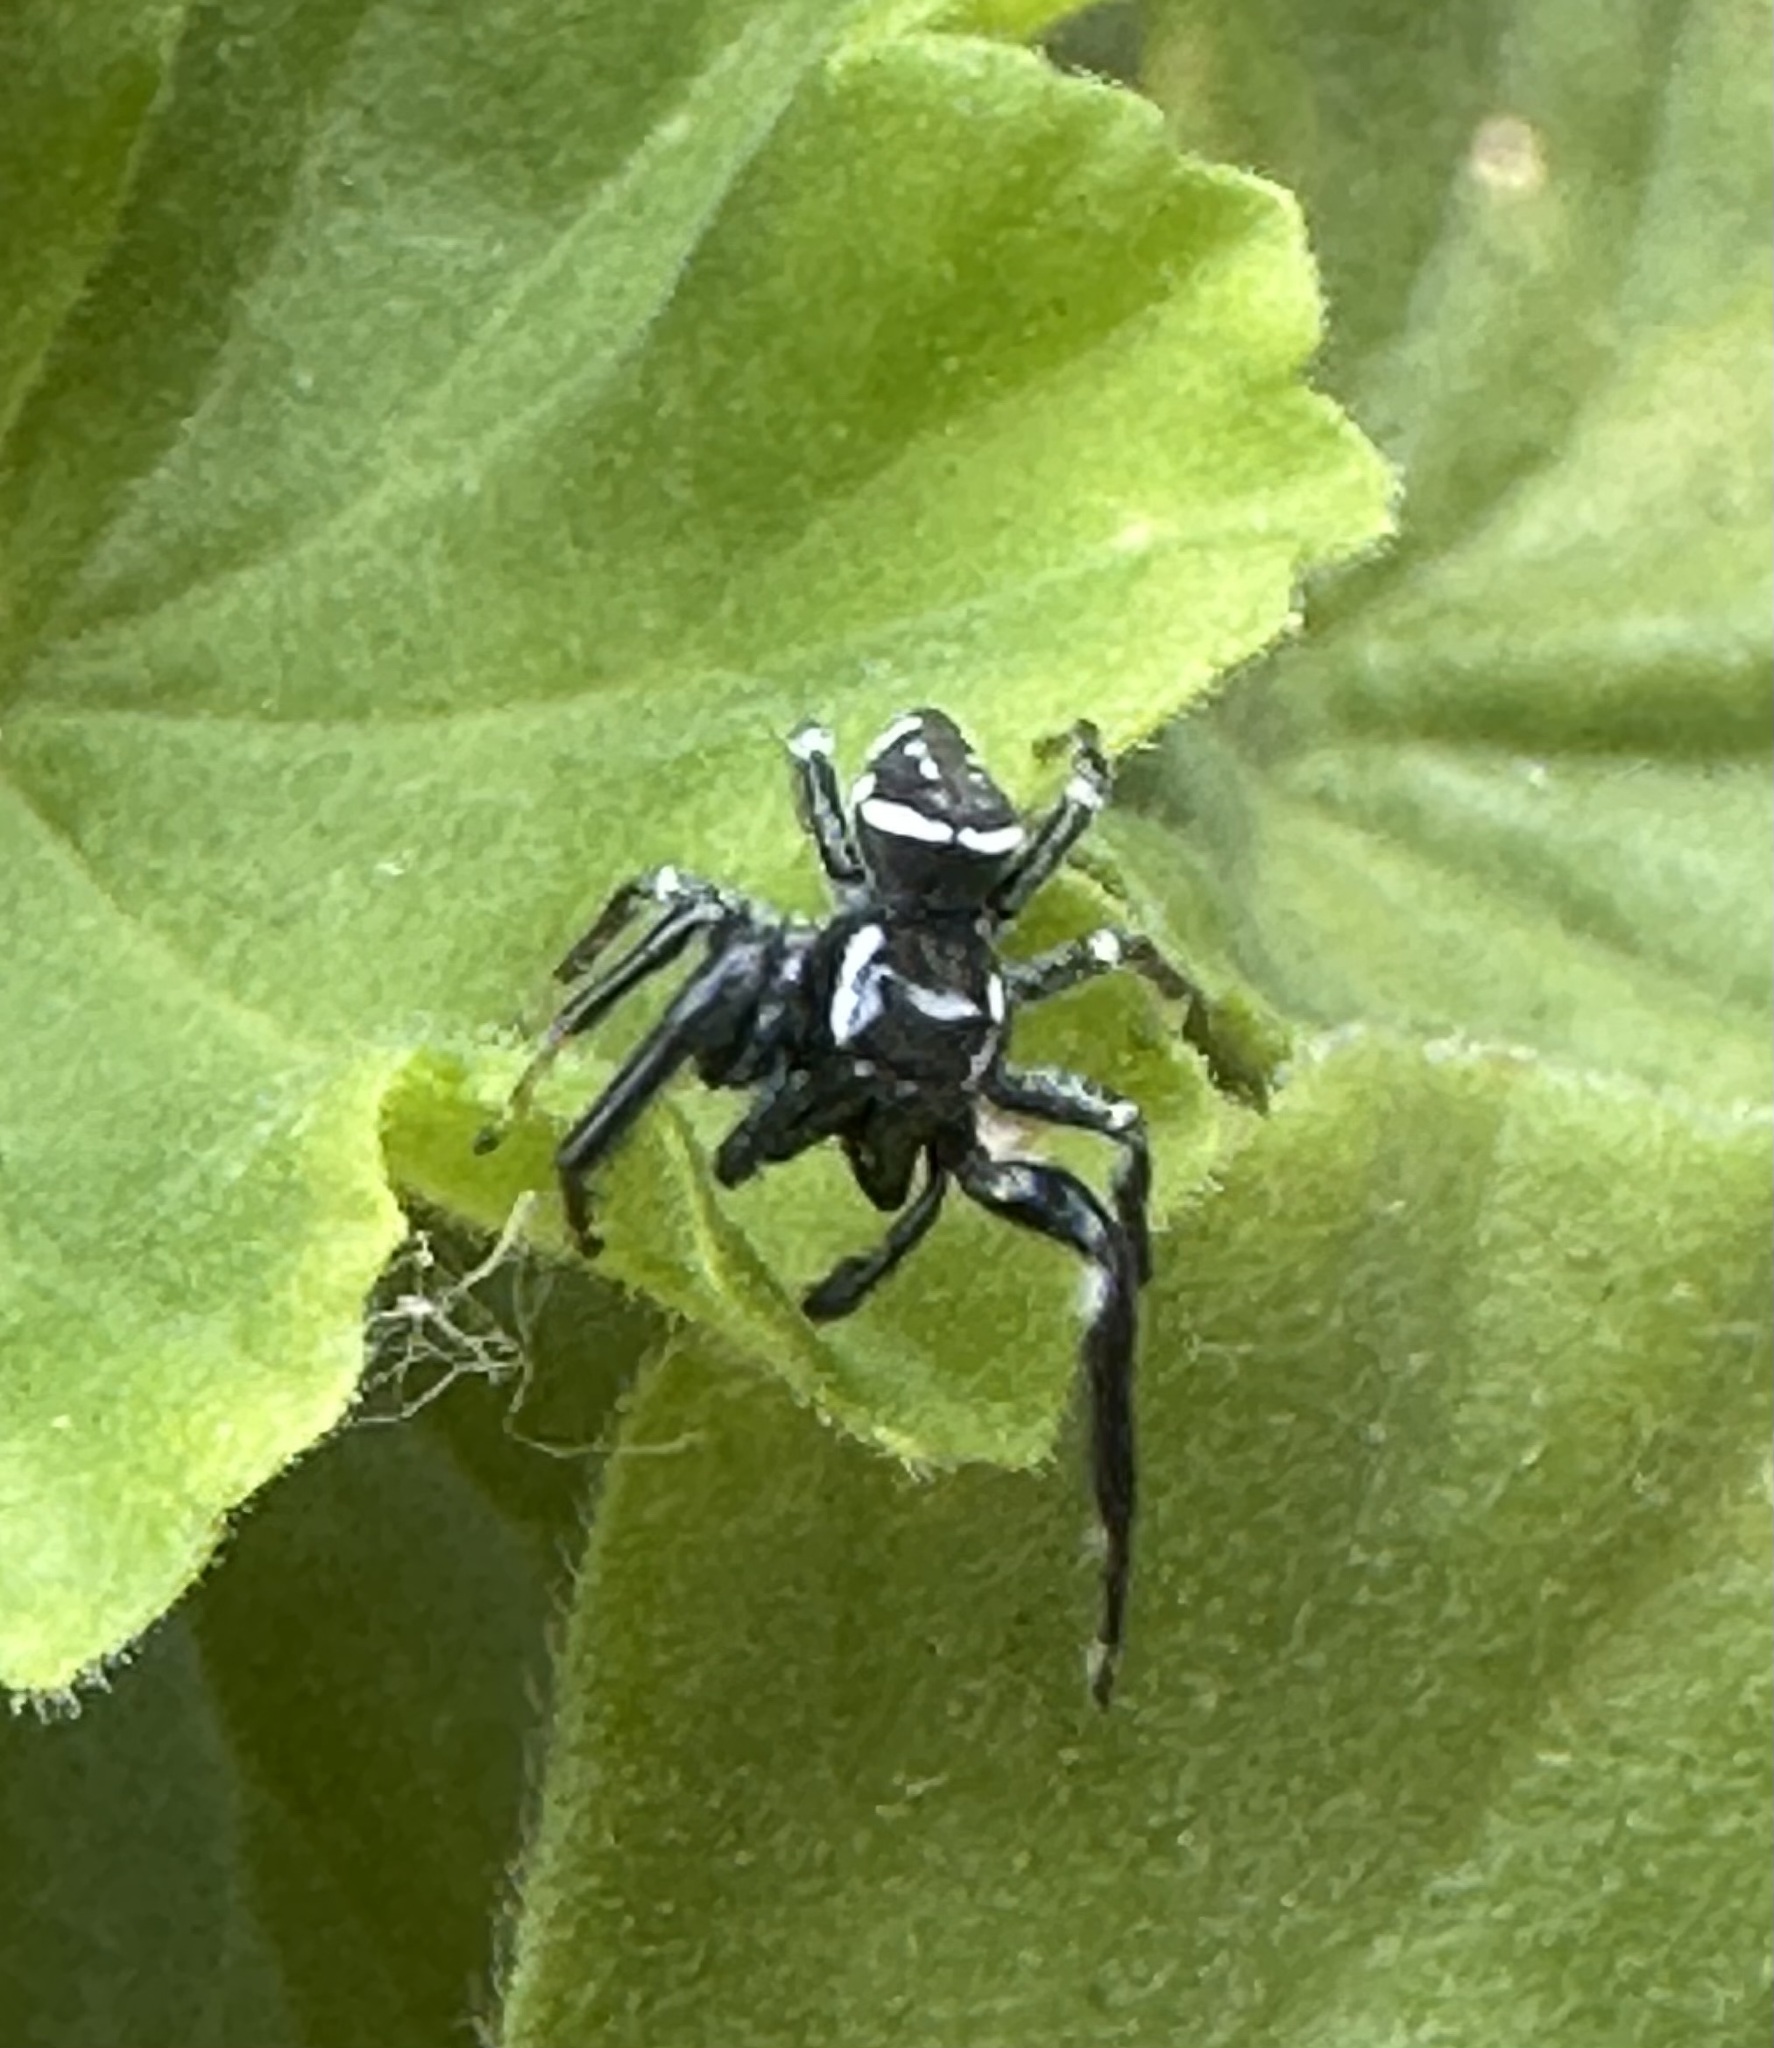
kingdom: Animalia
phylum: Arthropoda
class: Arachnida
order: Araneae
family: Salticidae
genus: Paraphidippus
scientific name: Paraphidippus aurantius
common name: Jumping spiders
